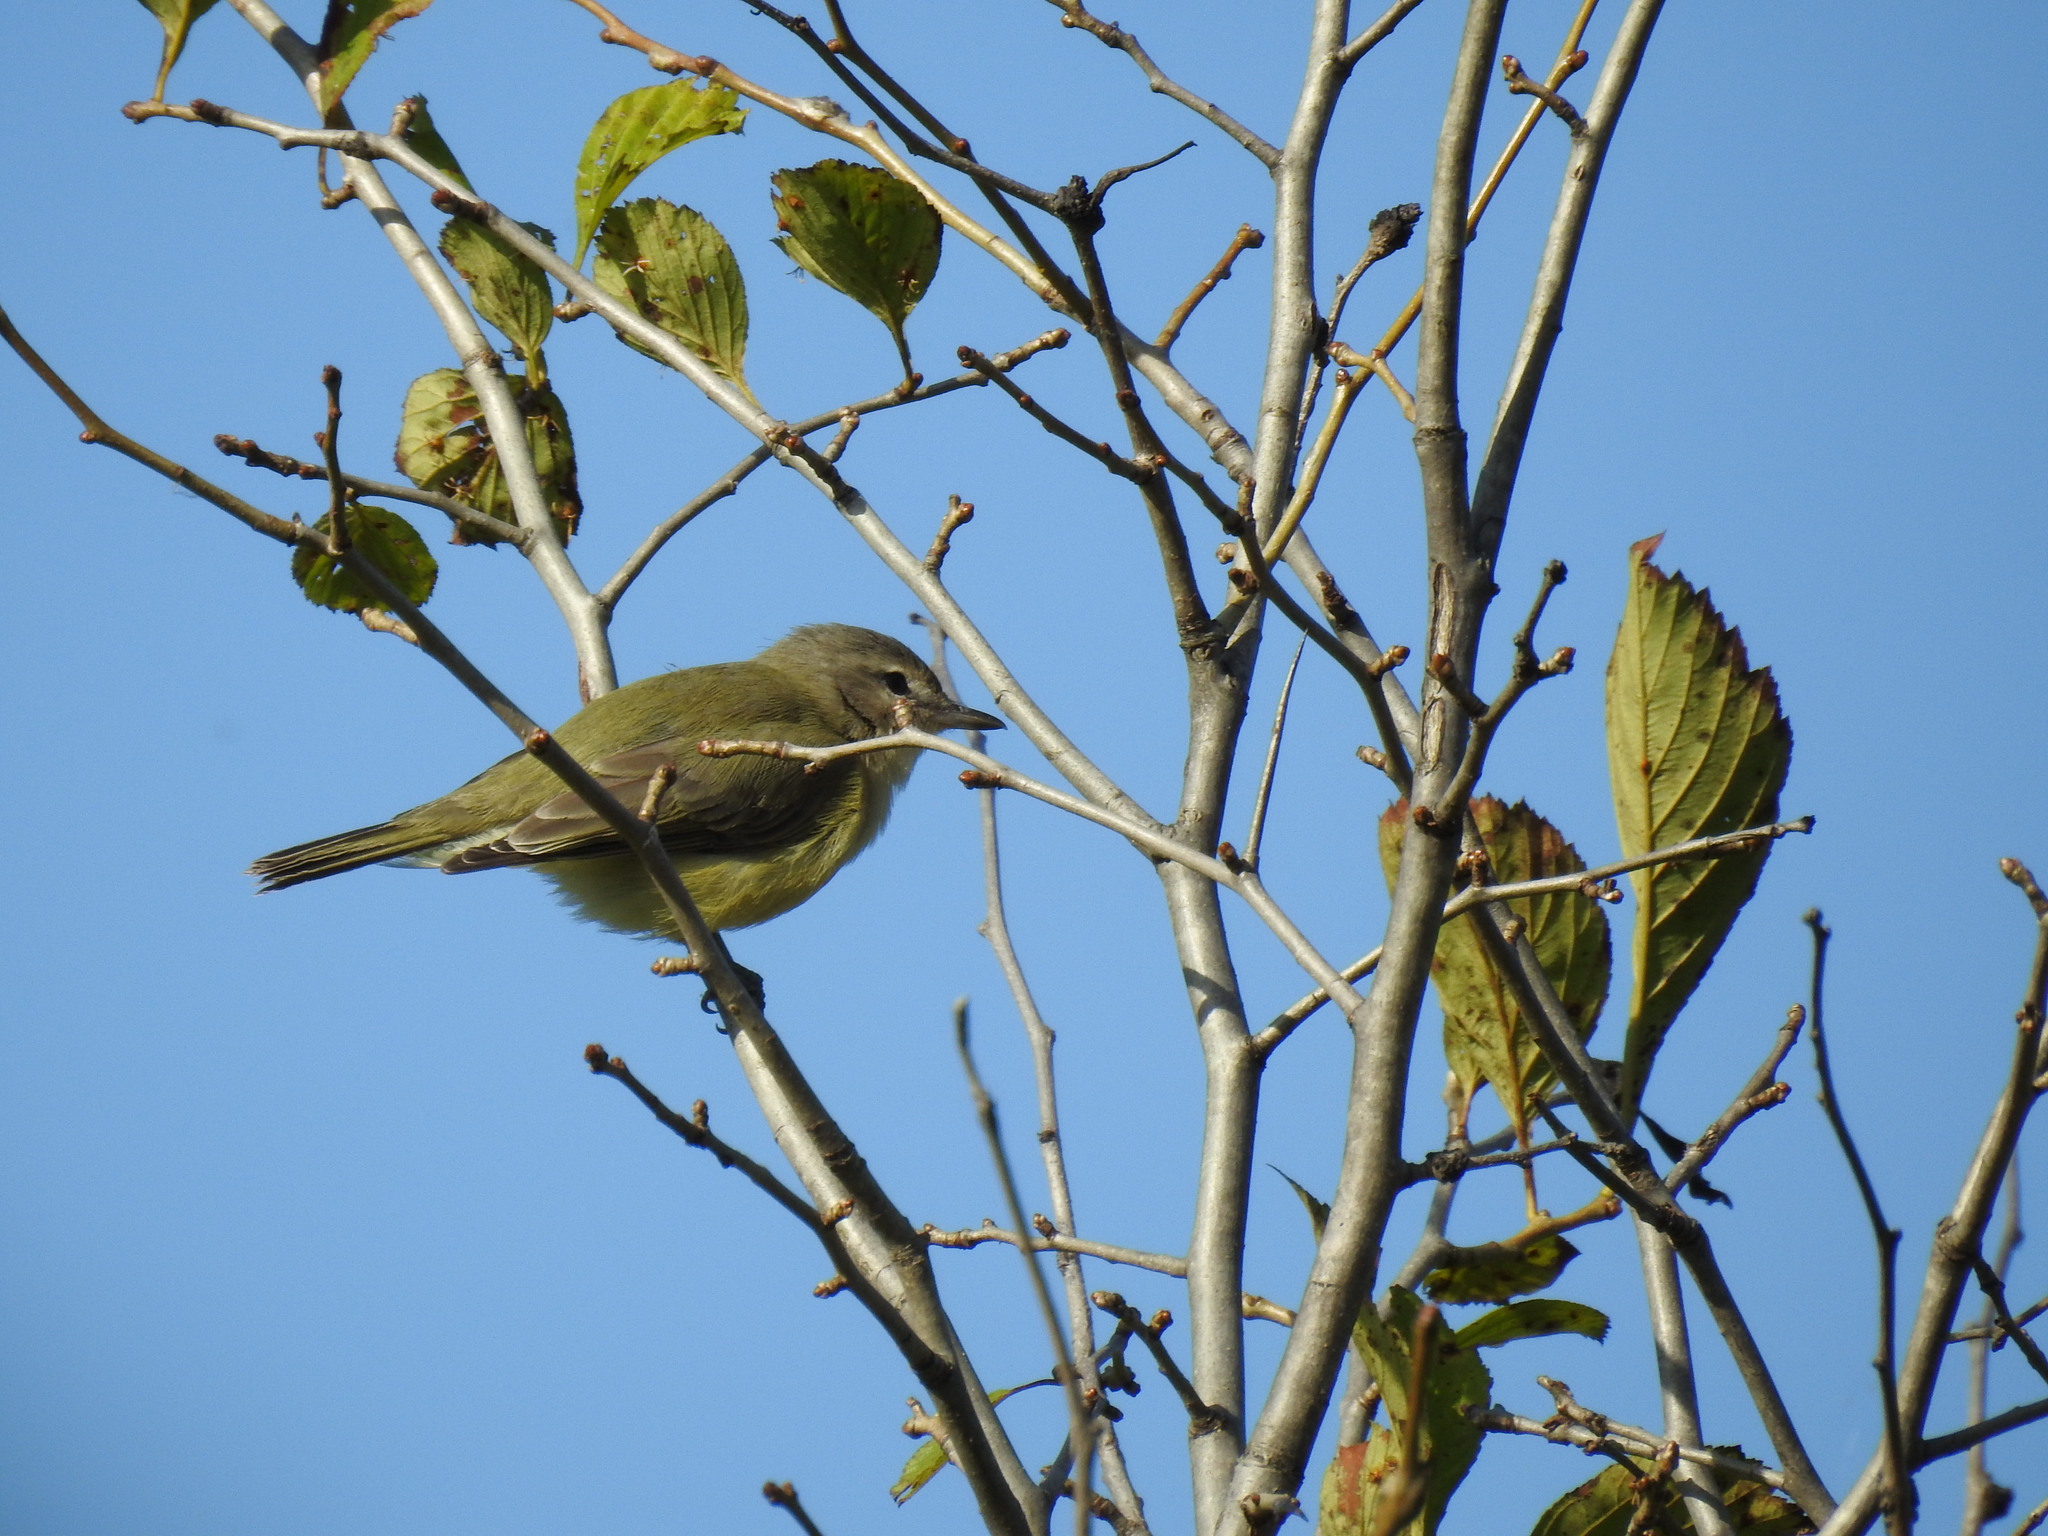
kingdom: Animalia
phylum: Chordata
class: Aves
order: Passeriformes
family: Vireonidae
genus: Vireo
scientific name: Vireo gilvus
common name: Warbling vireo
